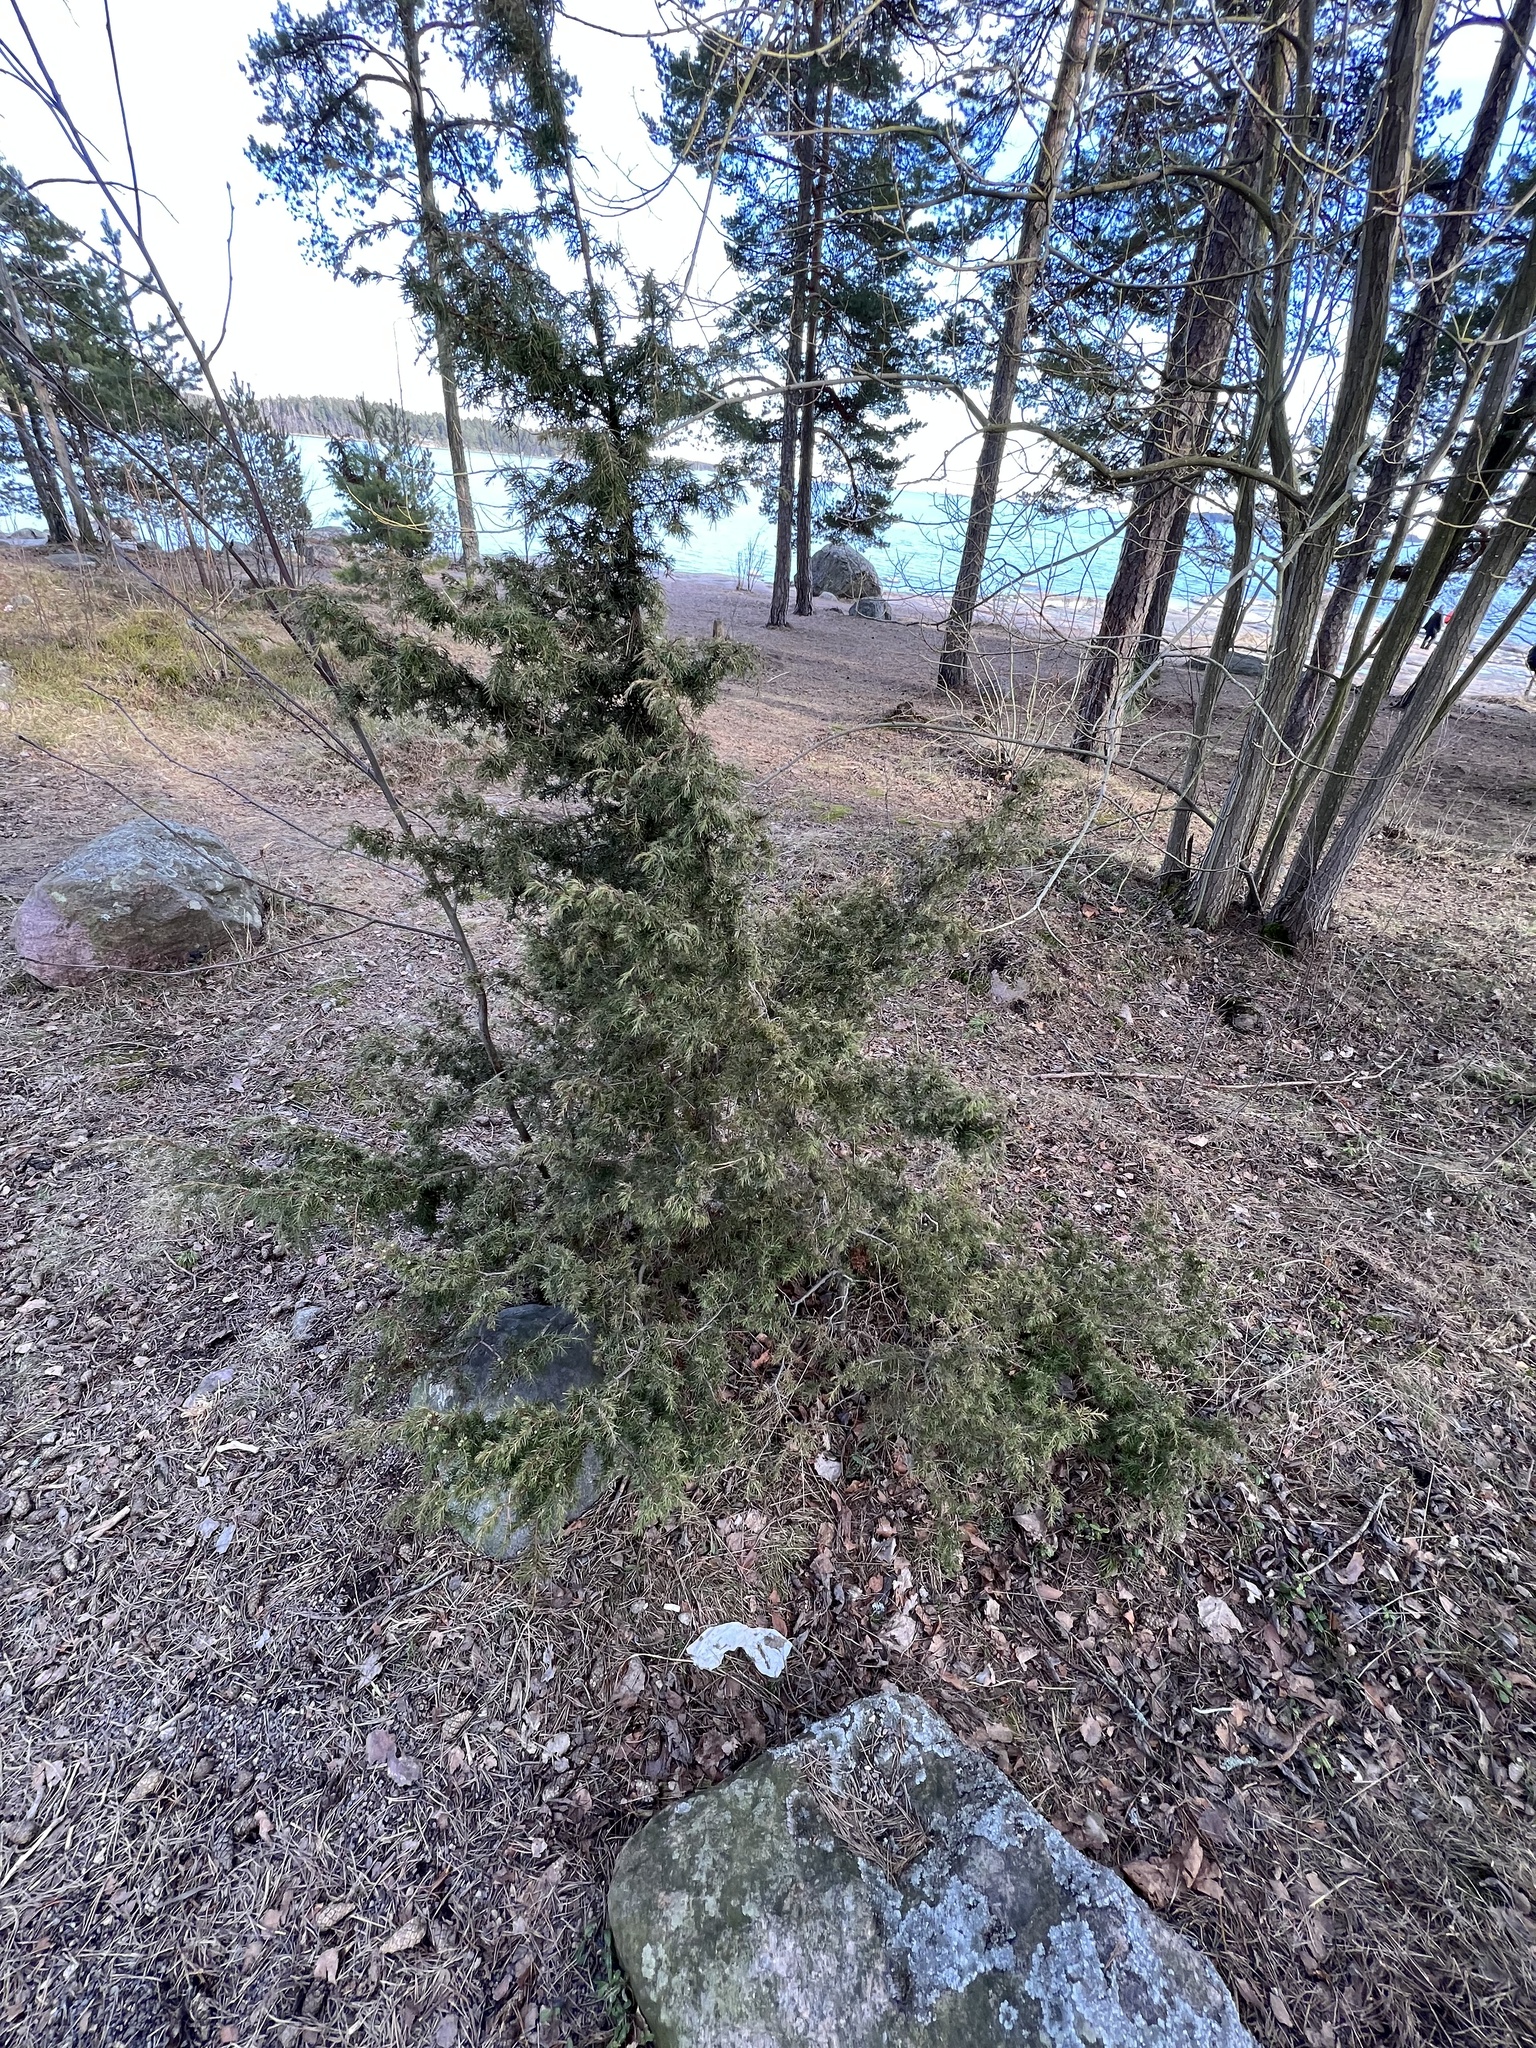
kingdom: Plantae
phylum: Tracheophyta
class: Pinopsida
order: Pinales
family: Cupressaceae
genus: Juniperus
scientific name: Juniperus communis
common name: Common juniper
